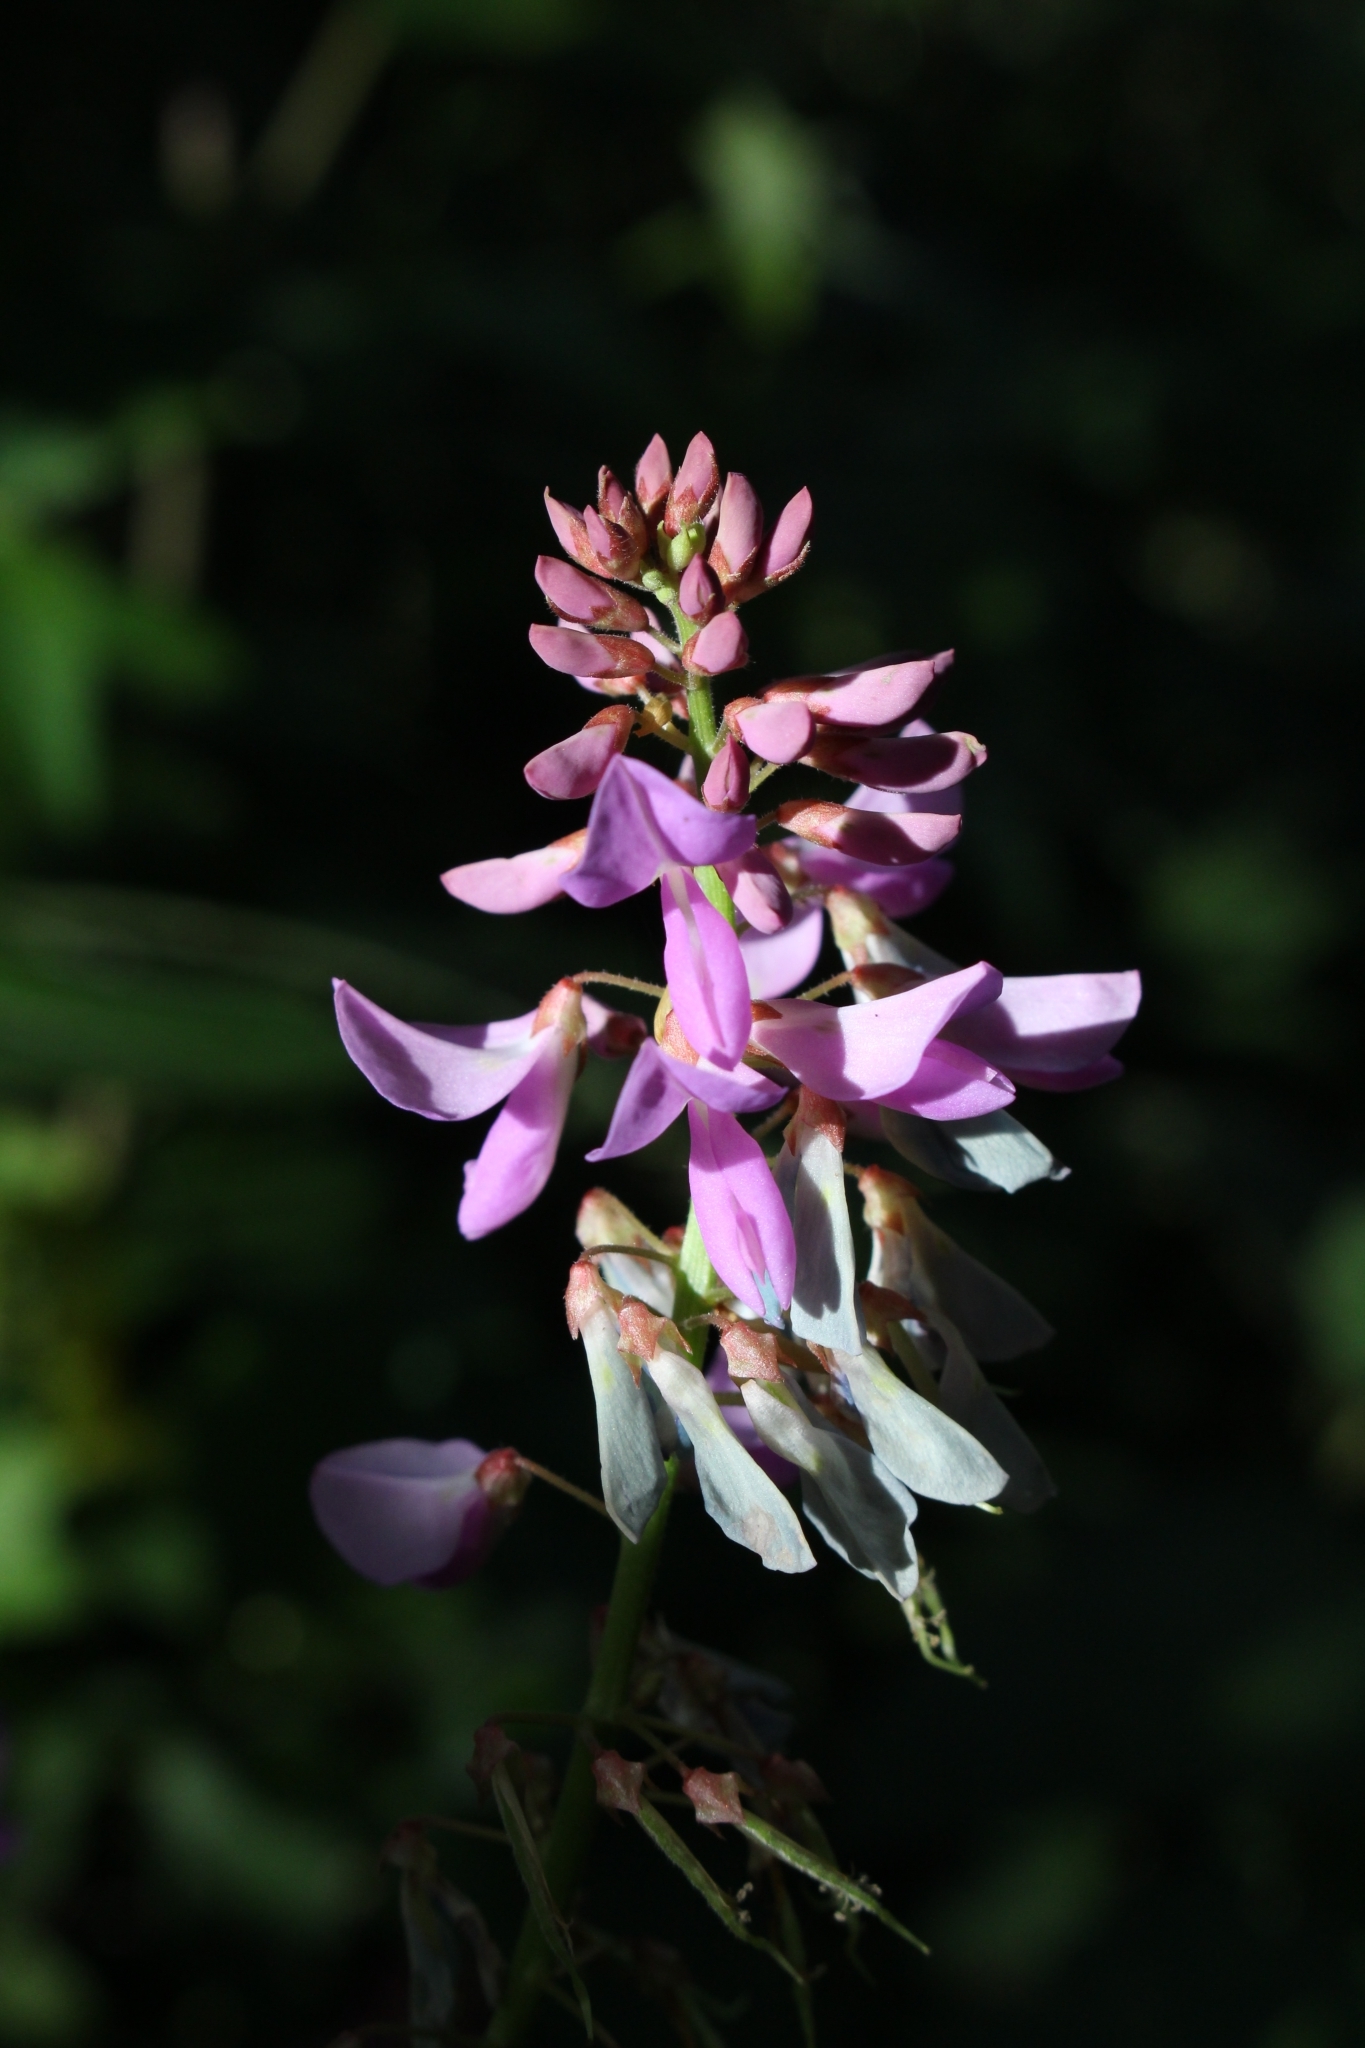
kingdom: Plantae
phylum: Tracheophyta
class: Magnoliopsida
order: Fabales
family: Fabaceae
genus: Phaseolus
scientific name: Phaseolus xanthotrichus
